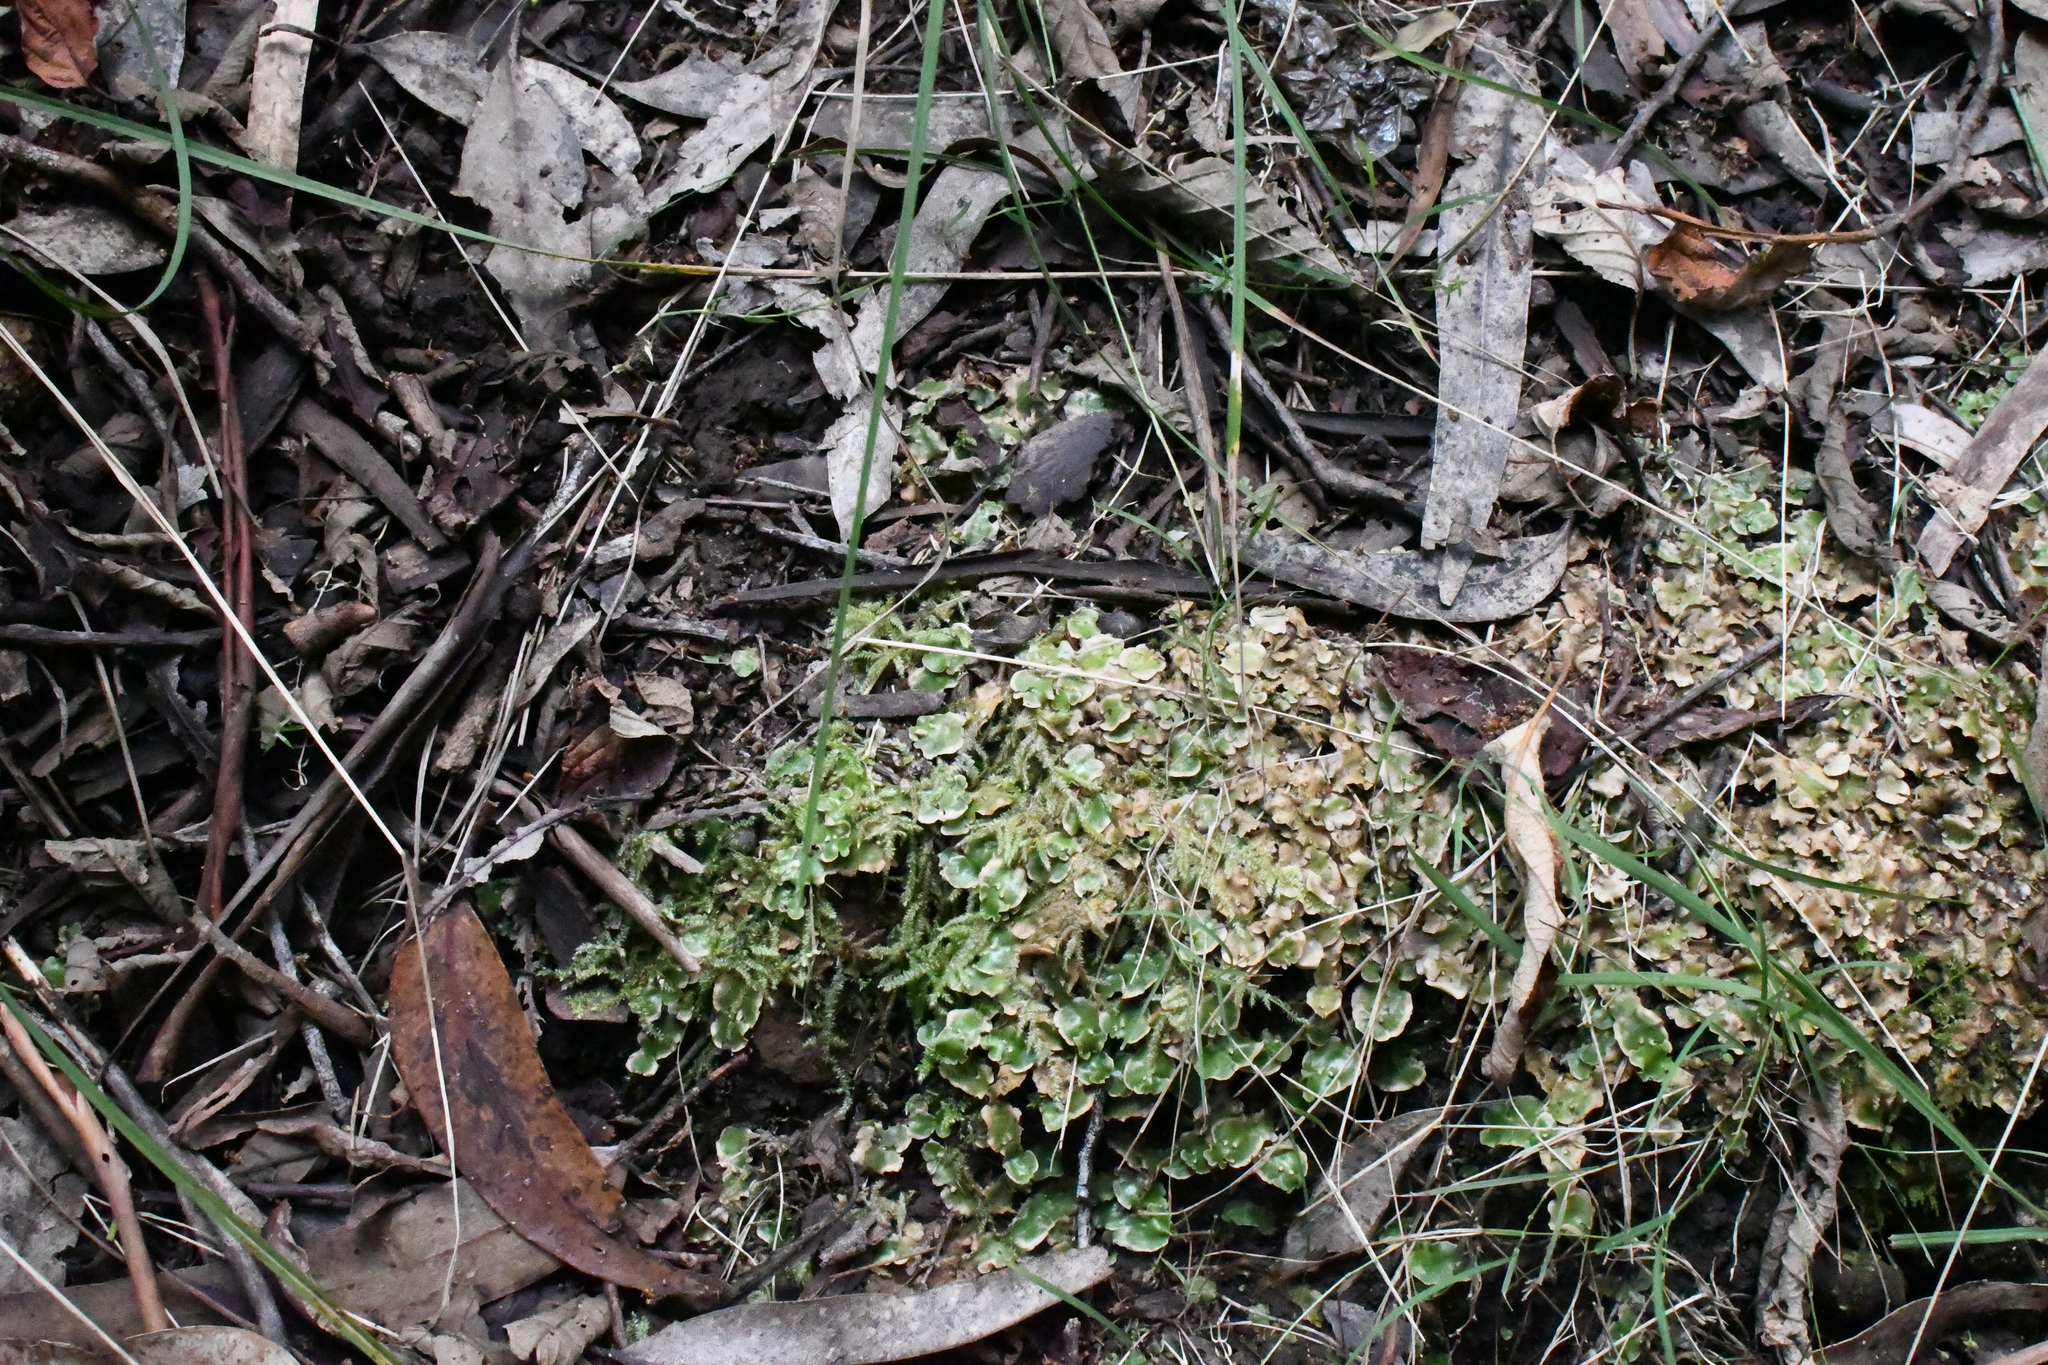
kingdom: Plantae
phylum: Marchantiophyta
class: Marchantiopsida
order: Lunulariales
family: Lunulariaceae
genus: Lunularia
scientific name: Lunularia cruciata
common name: Crescent-cup liverwort
